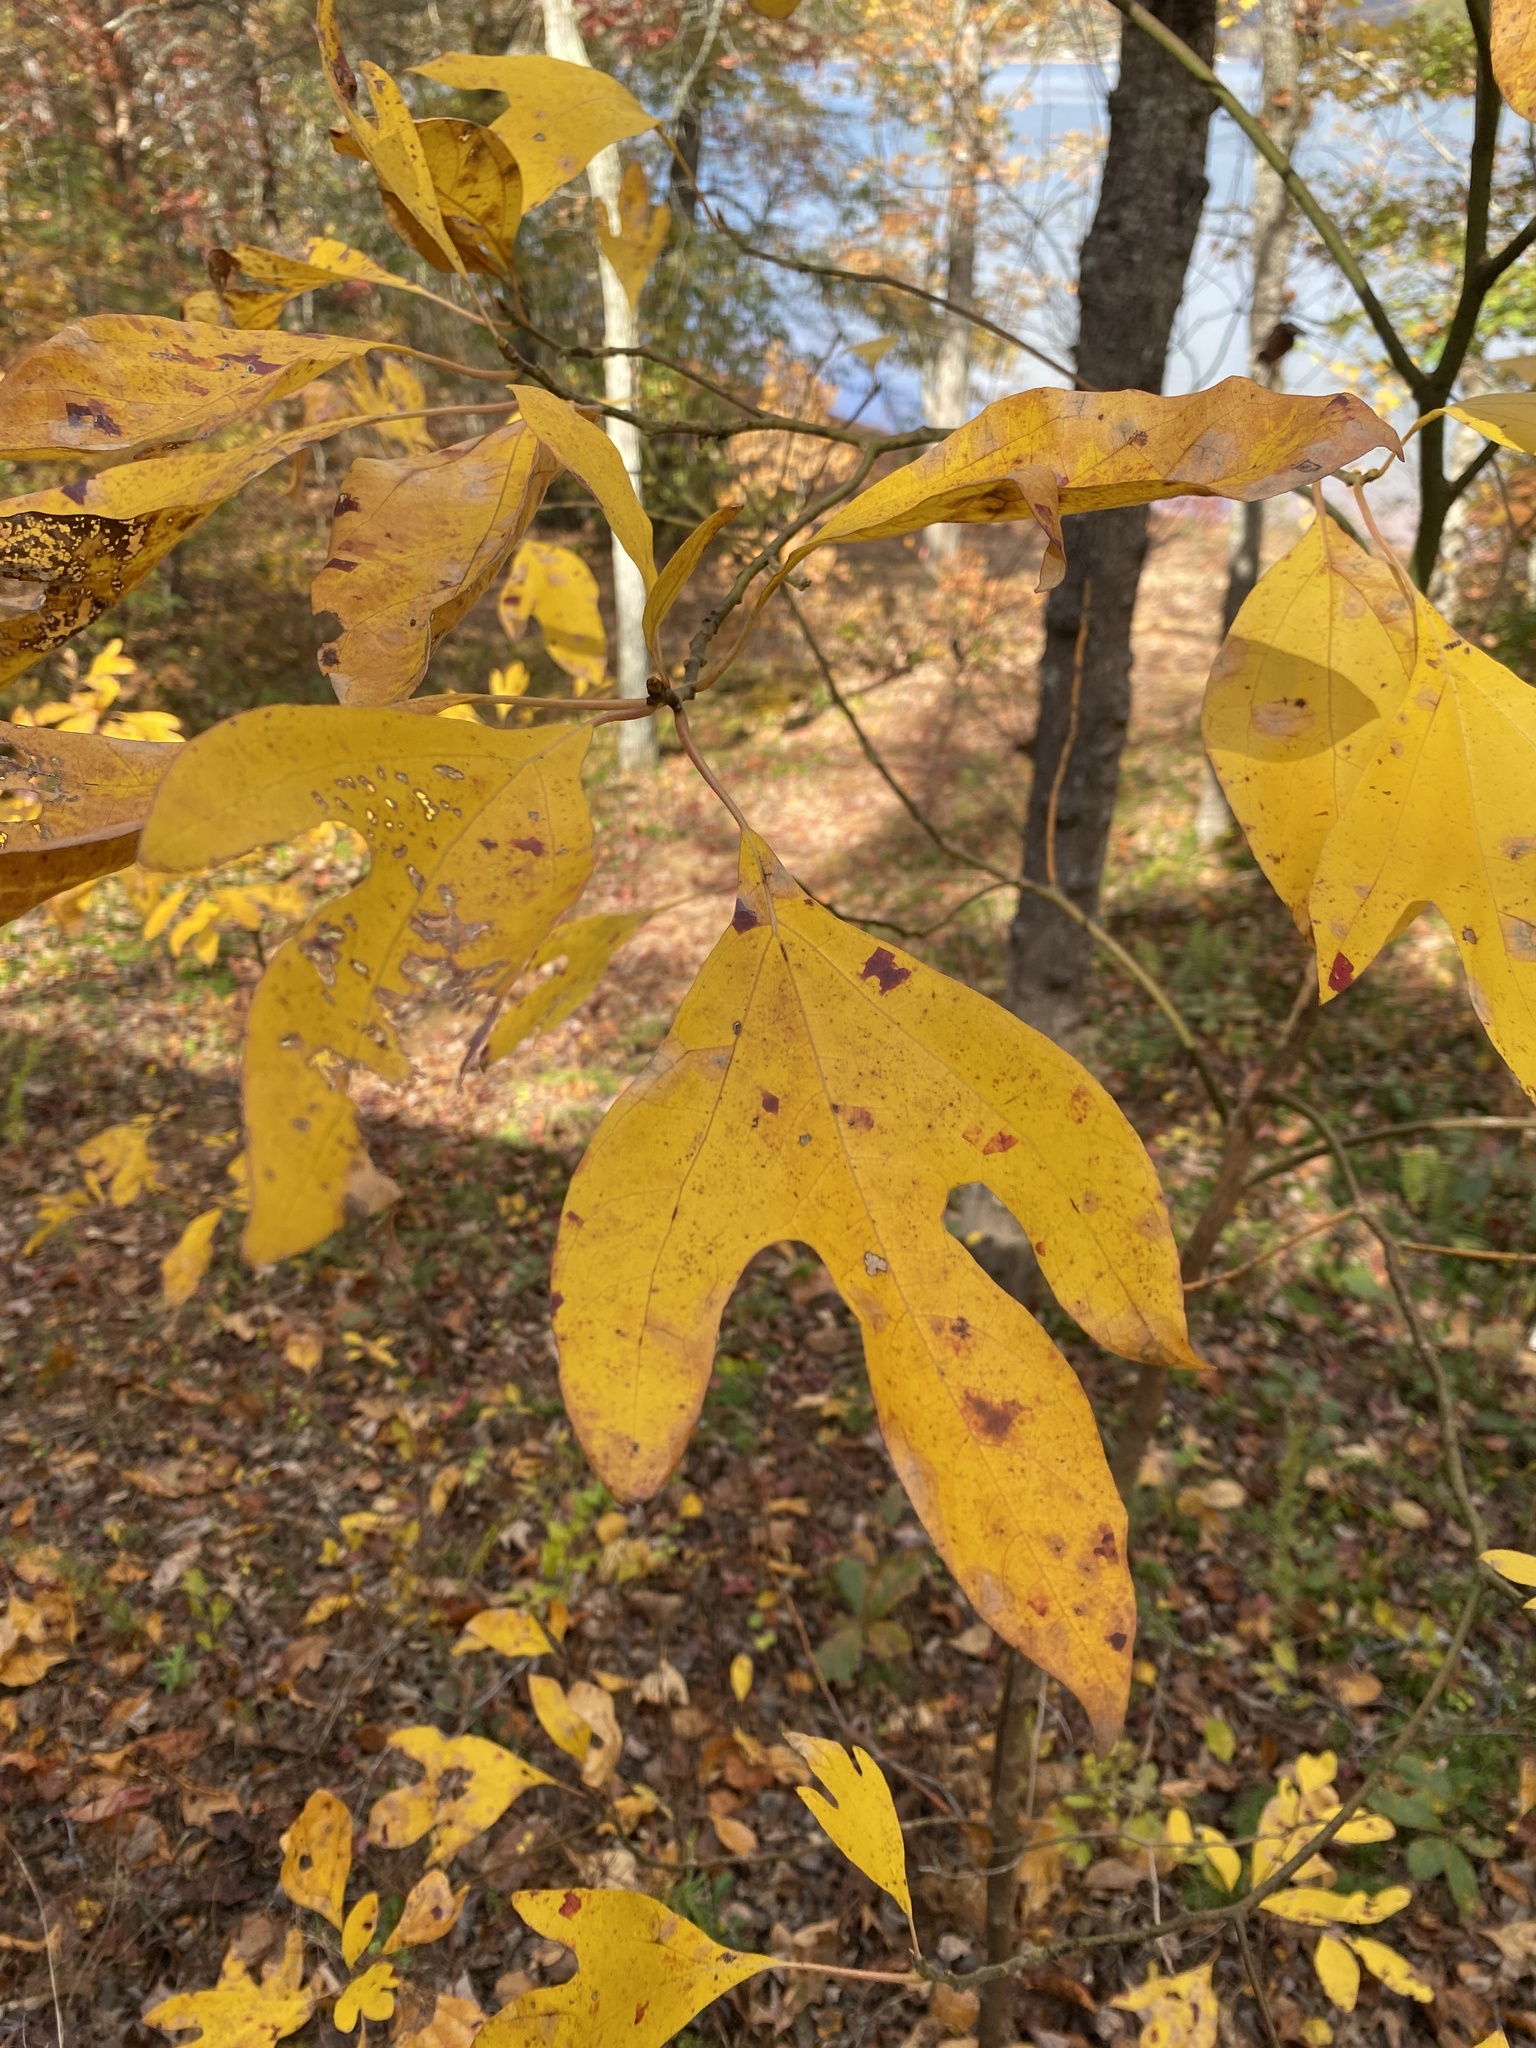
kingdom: Plantae
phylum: Tracheophyta
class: Magnoliopsida
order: Laurales
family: Lauraceae
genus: Sassafras
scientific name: Sassafras albidum
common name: Sassafras
